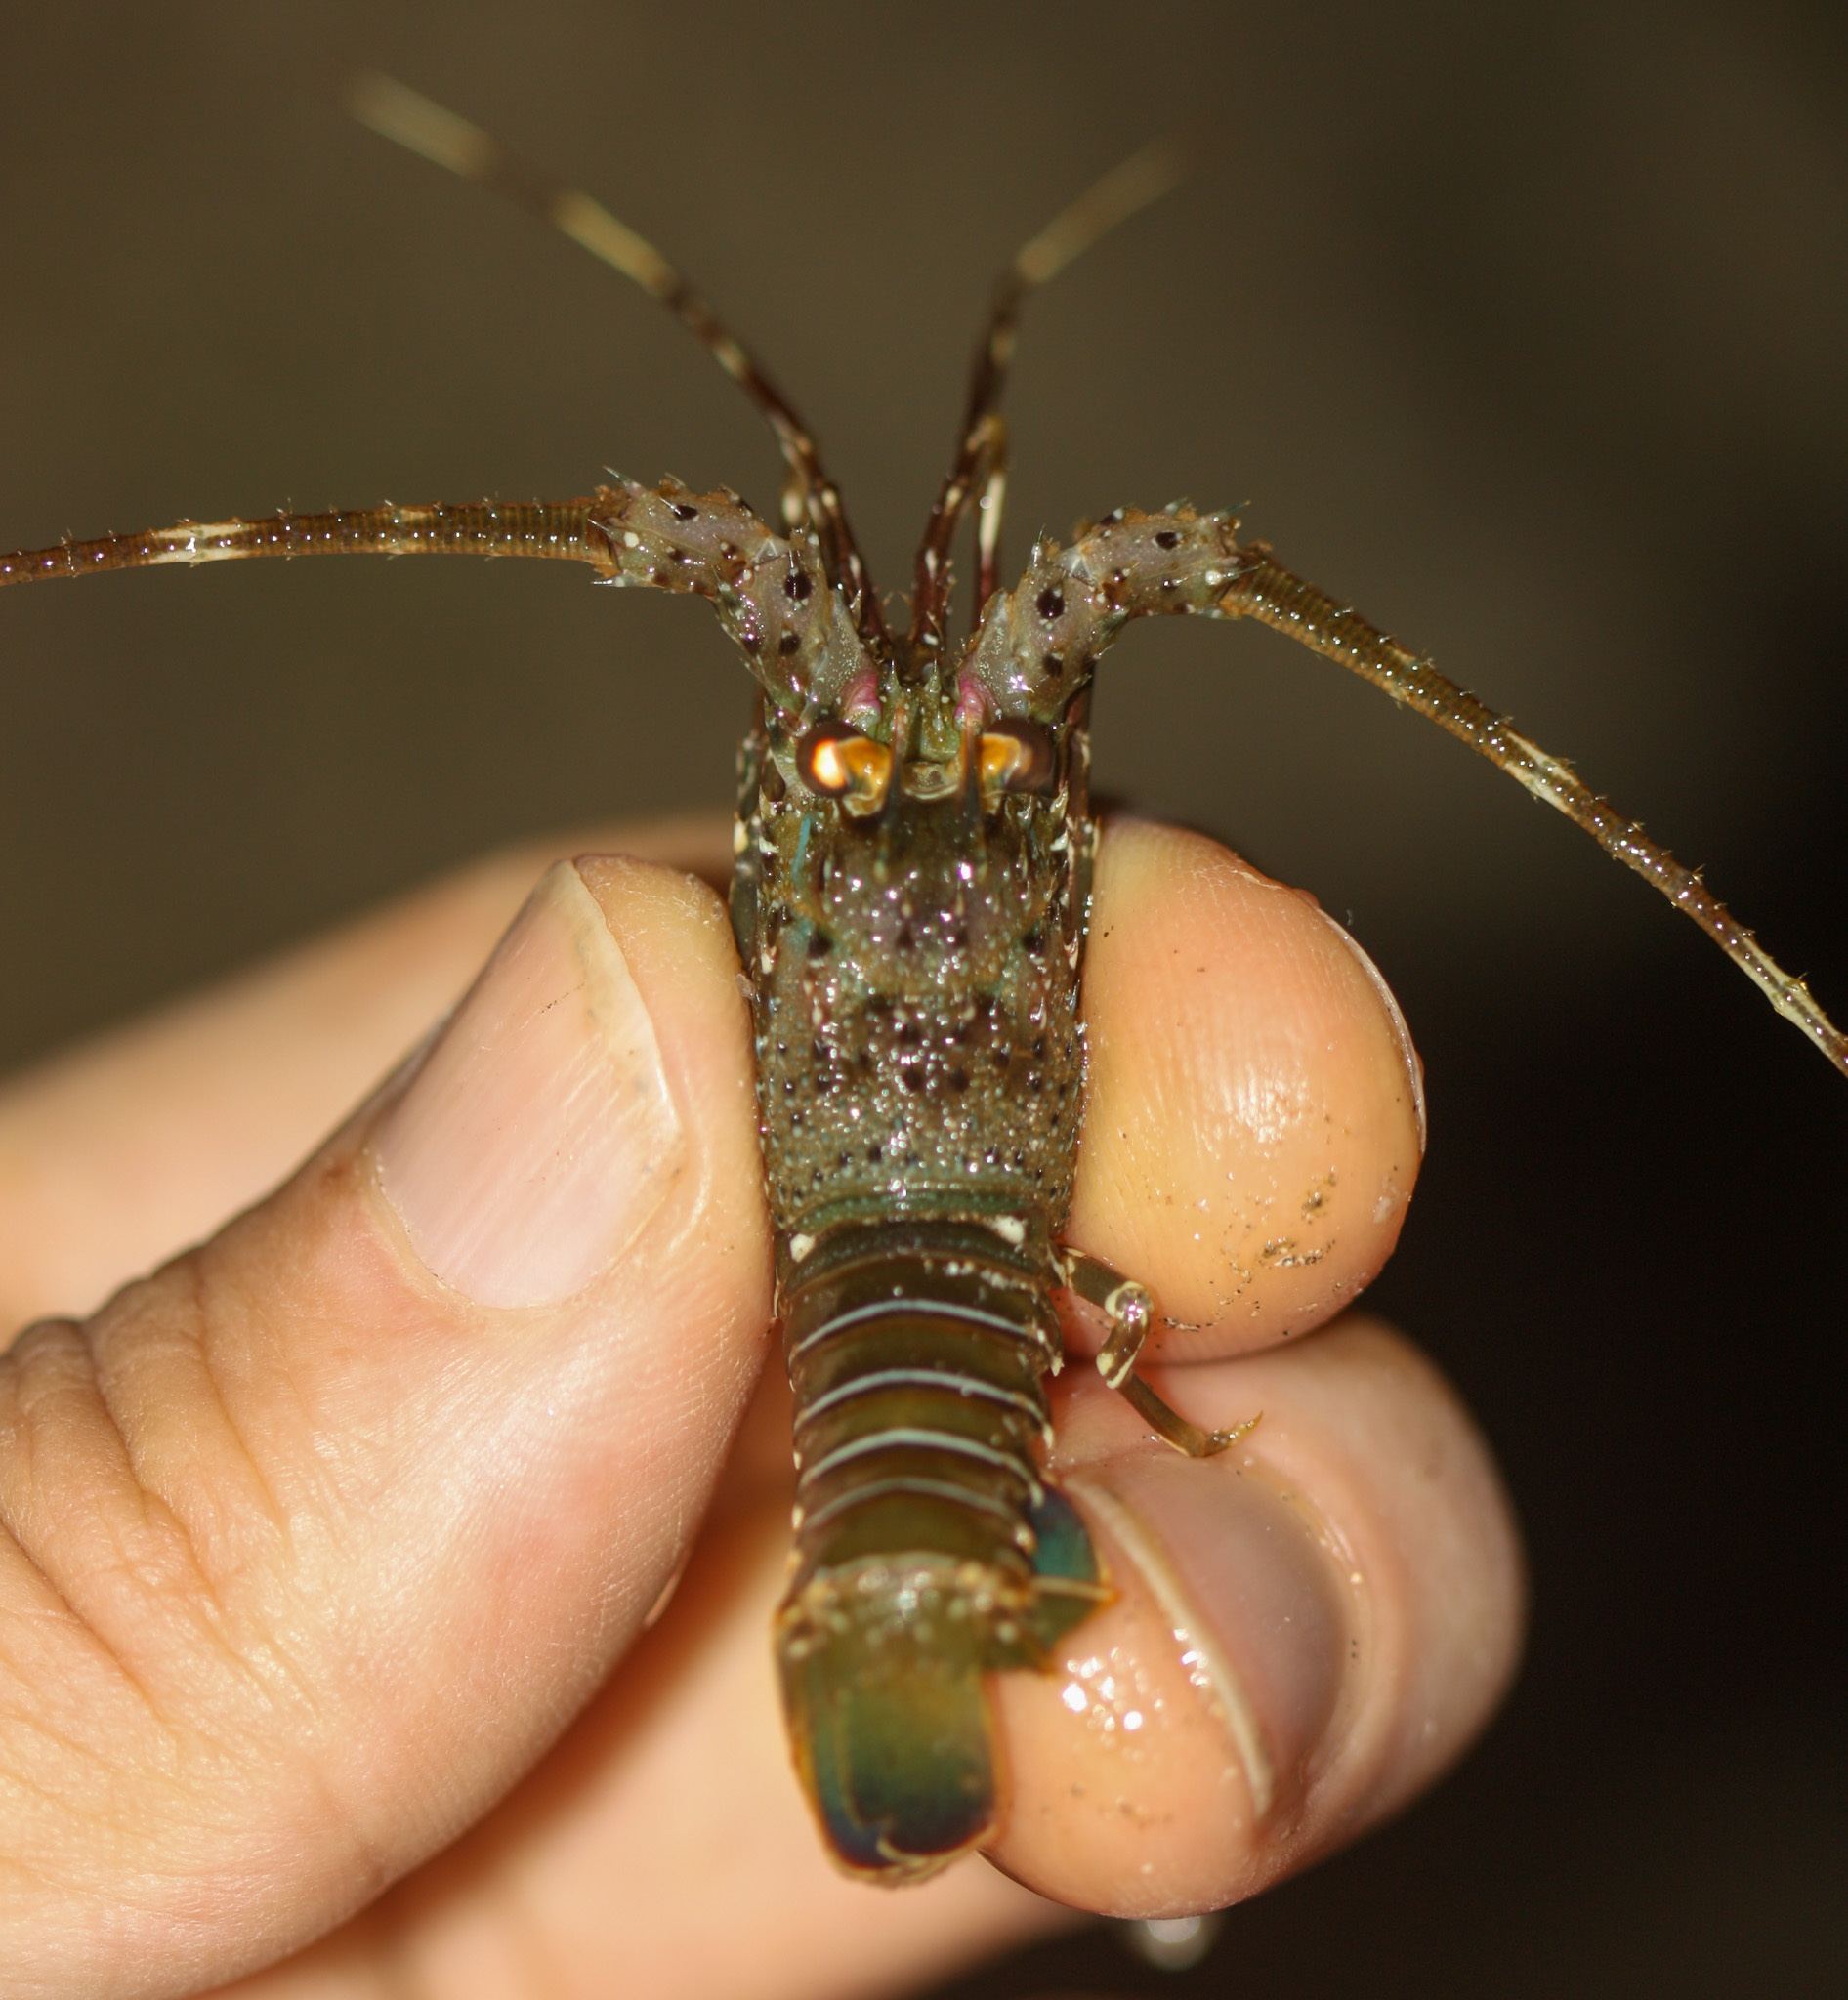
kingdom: Animalia
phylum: Arthropoda
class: Malacostraca
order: Decapoda
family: Palinuridae
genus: Panulirus
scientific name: Panulirus gracilis
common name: Green spiny lobster
